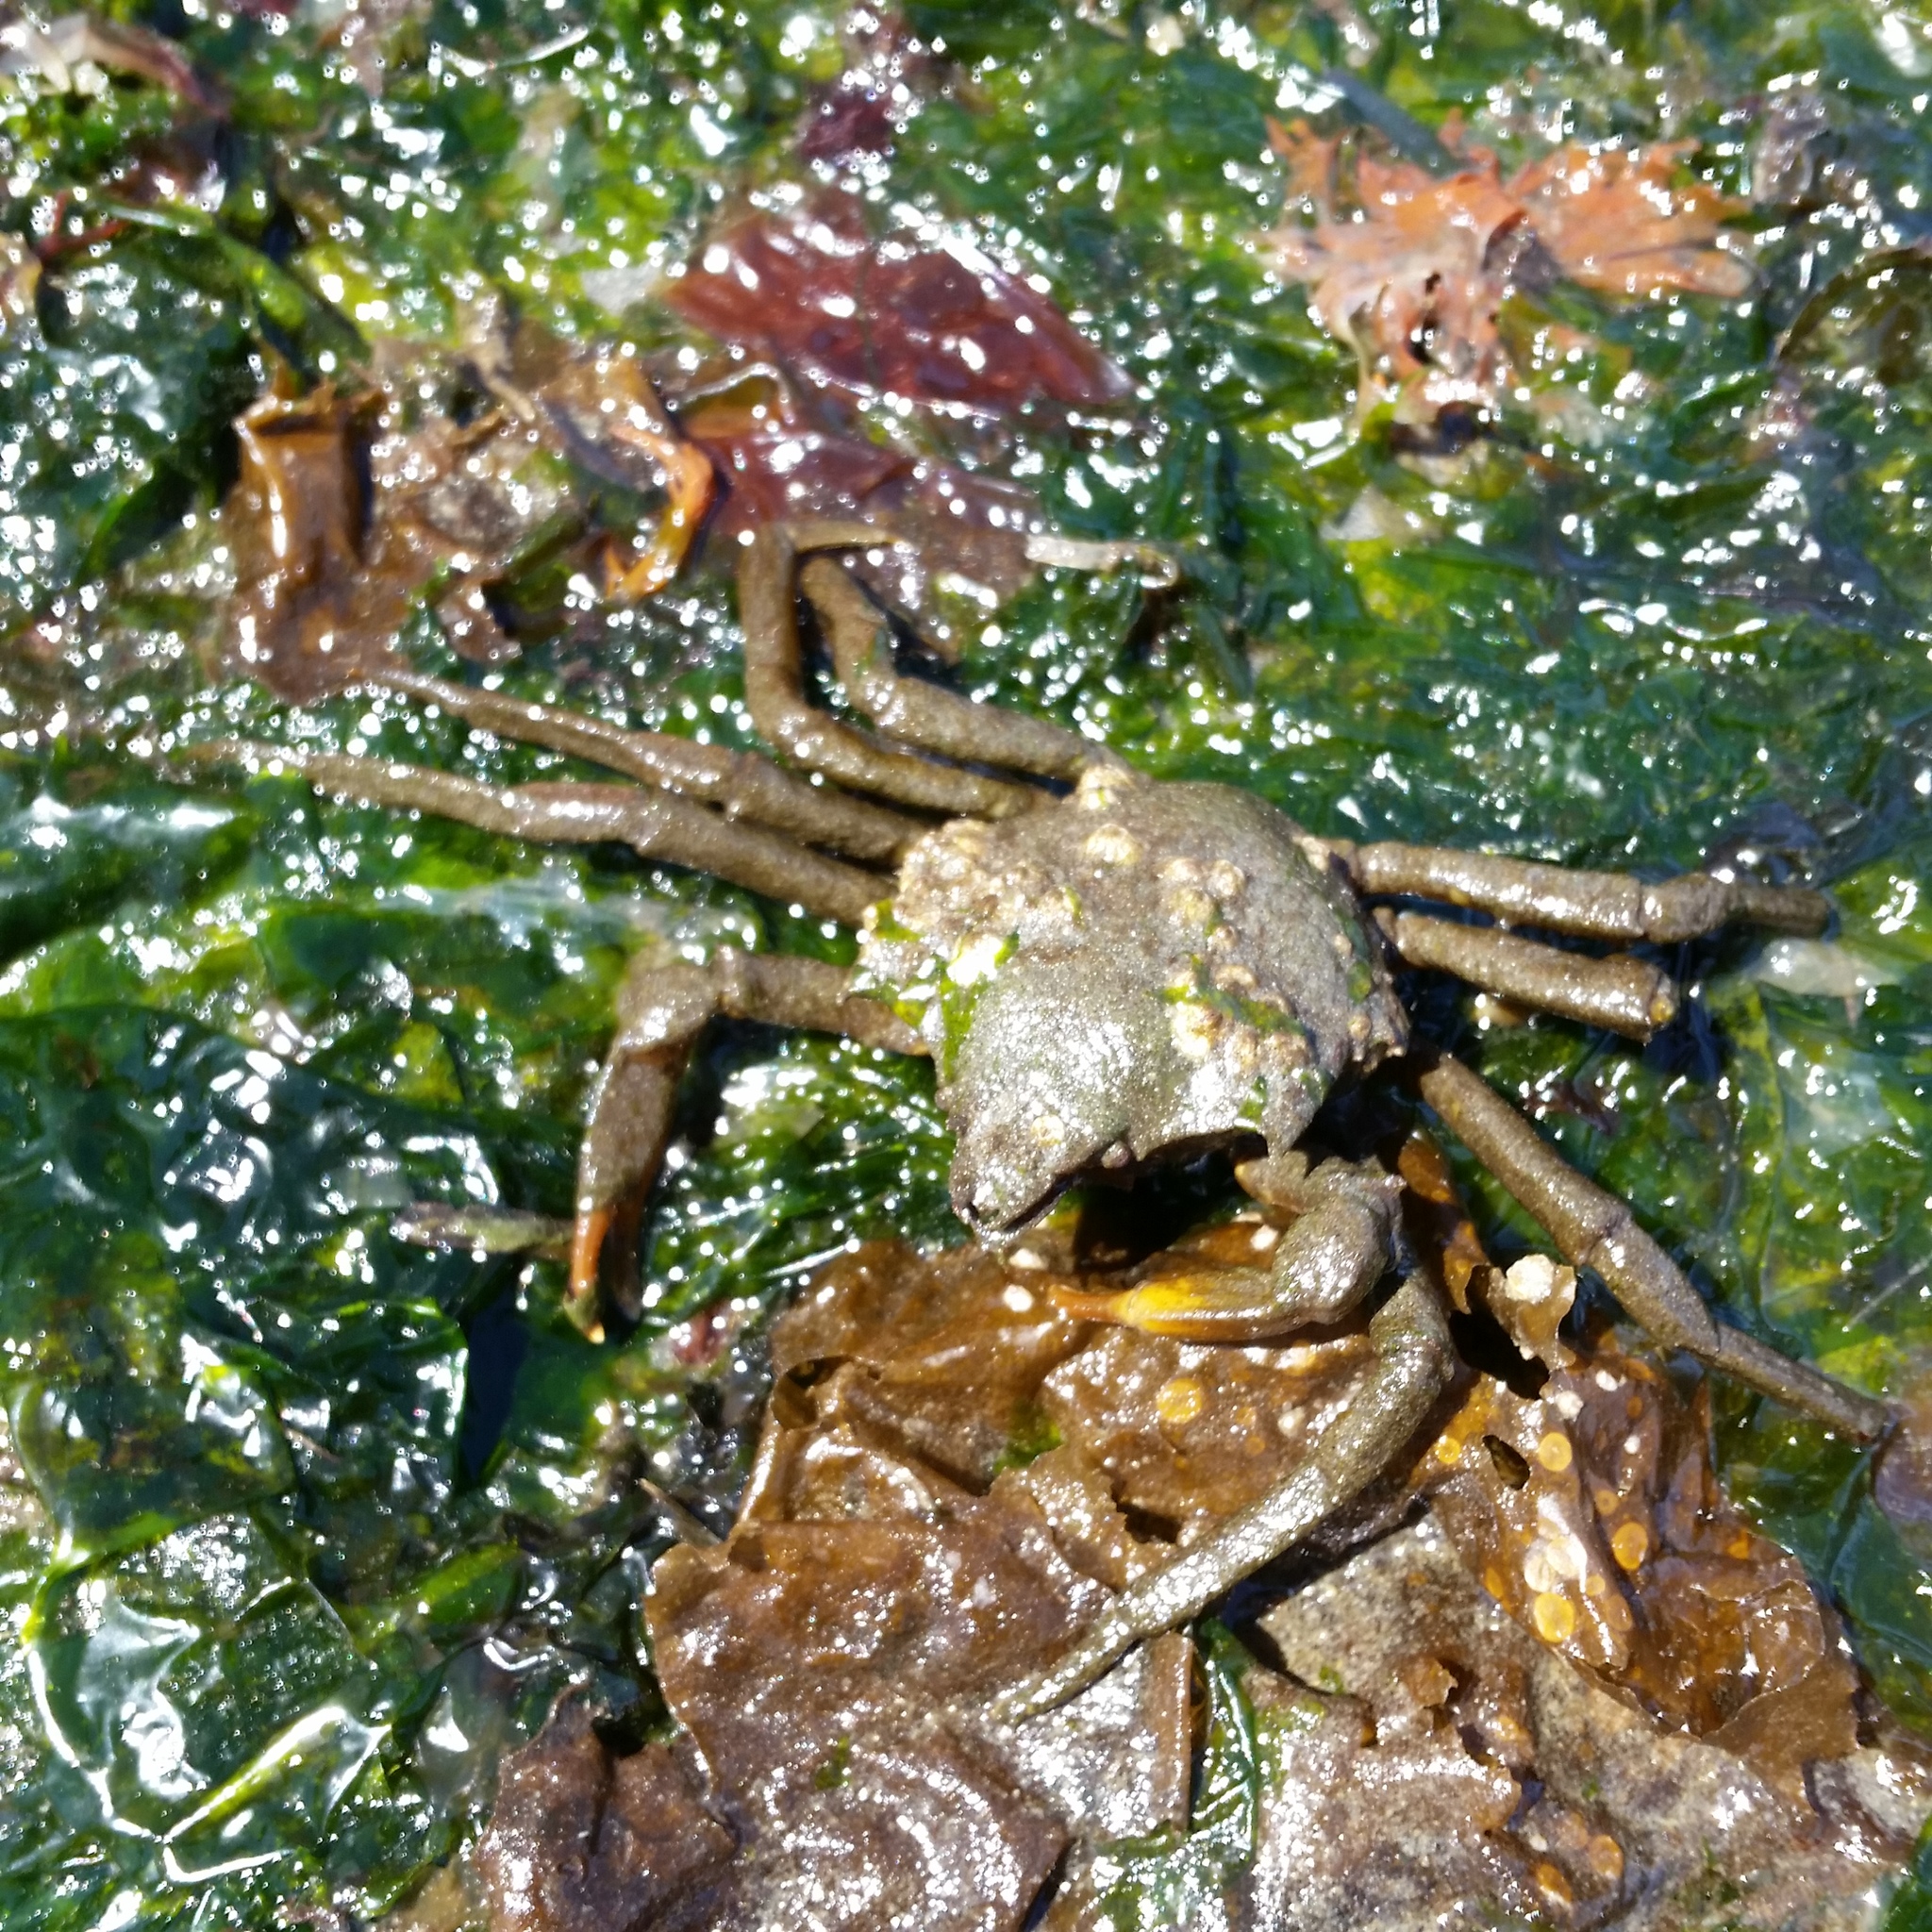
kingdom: Animalia
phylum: Arthropoda
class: Malacostraca
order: Decapoda
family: Epialtidae
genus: Pugettia
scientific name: Pugettia producta
